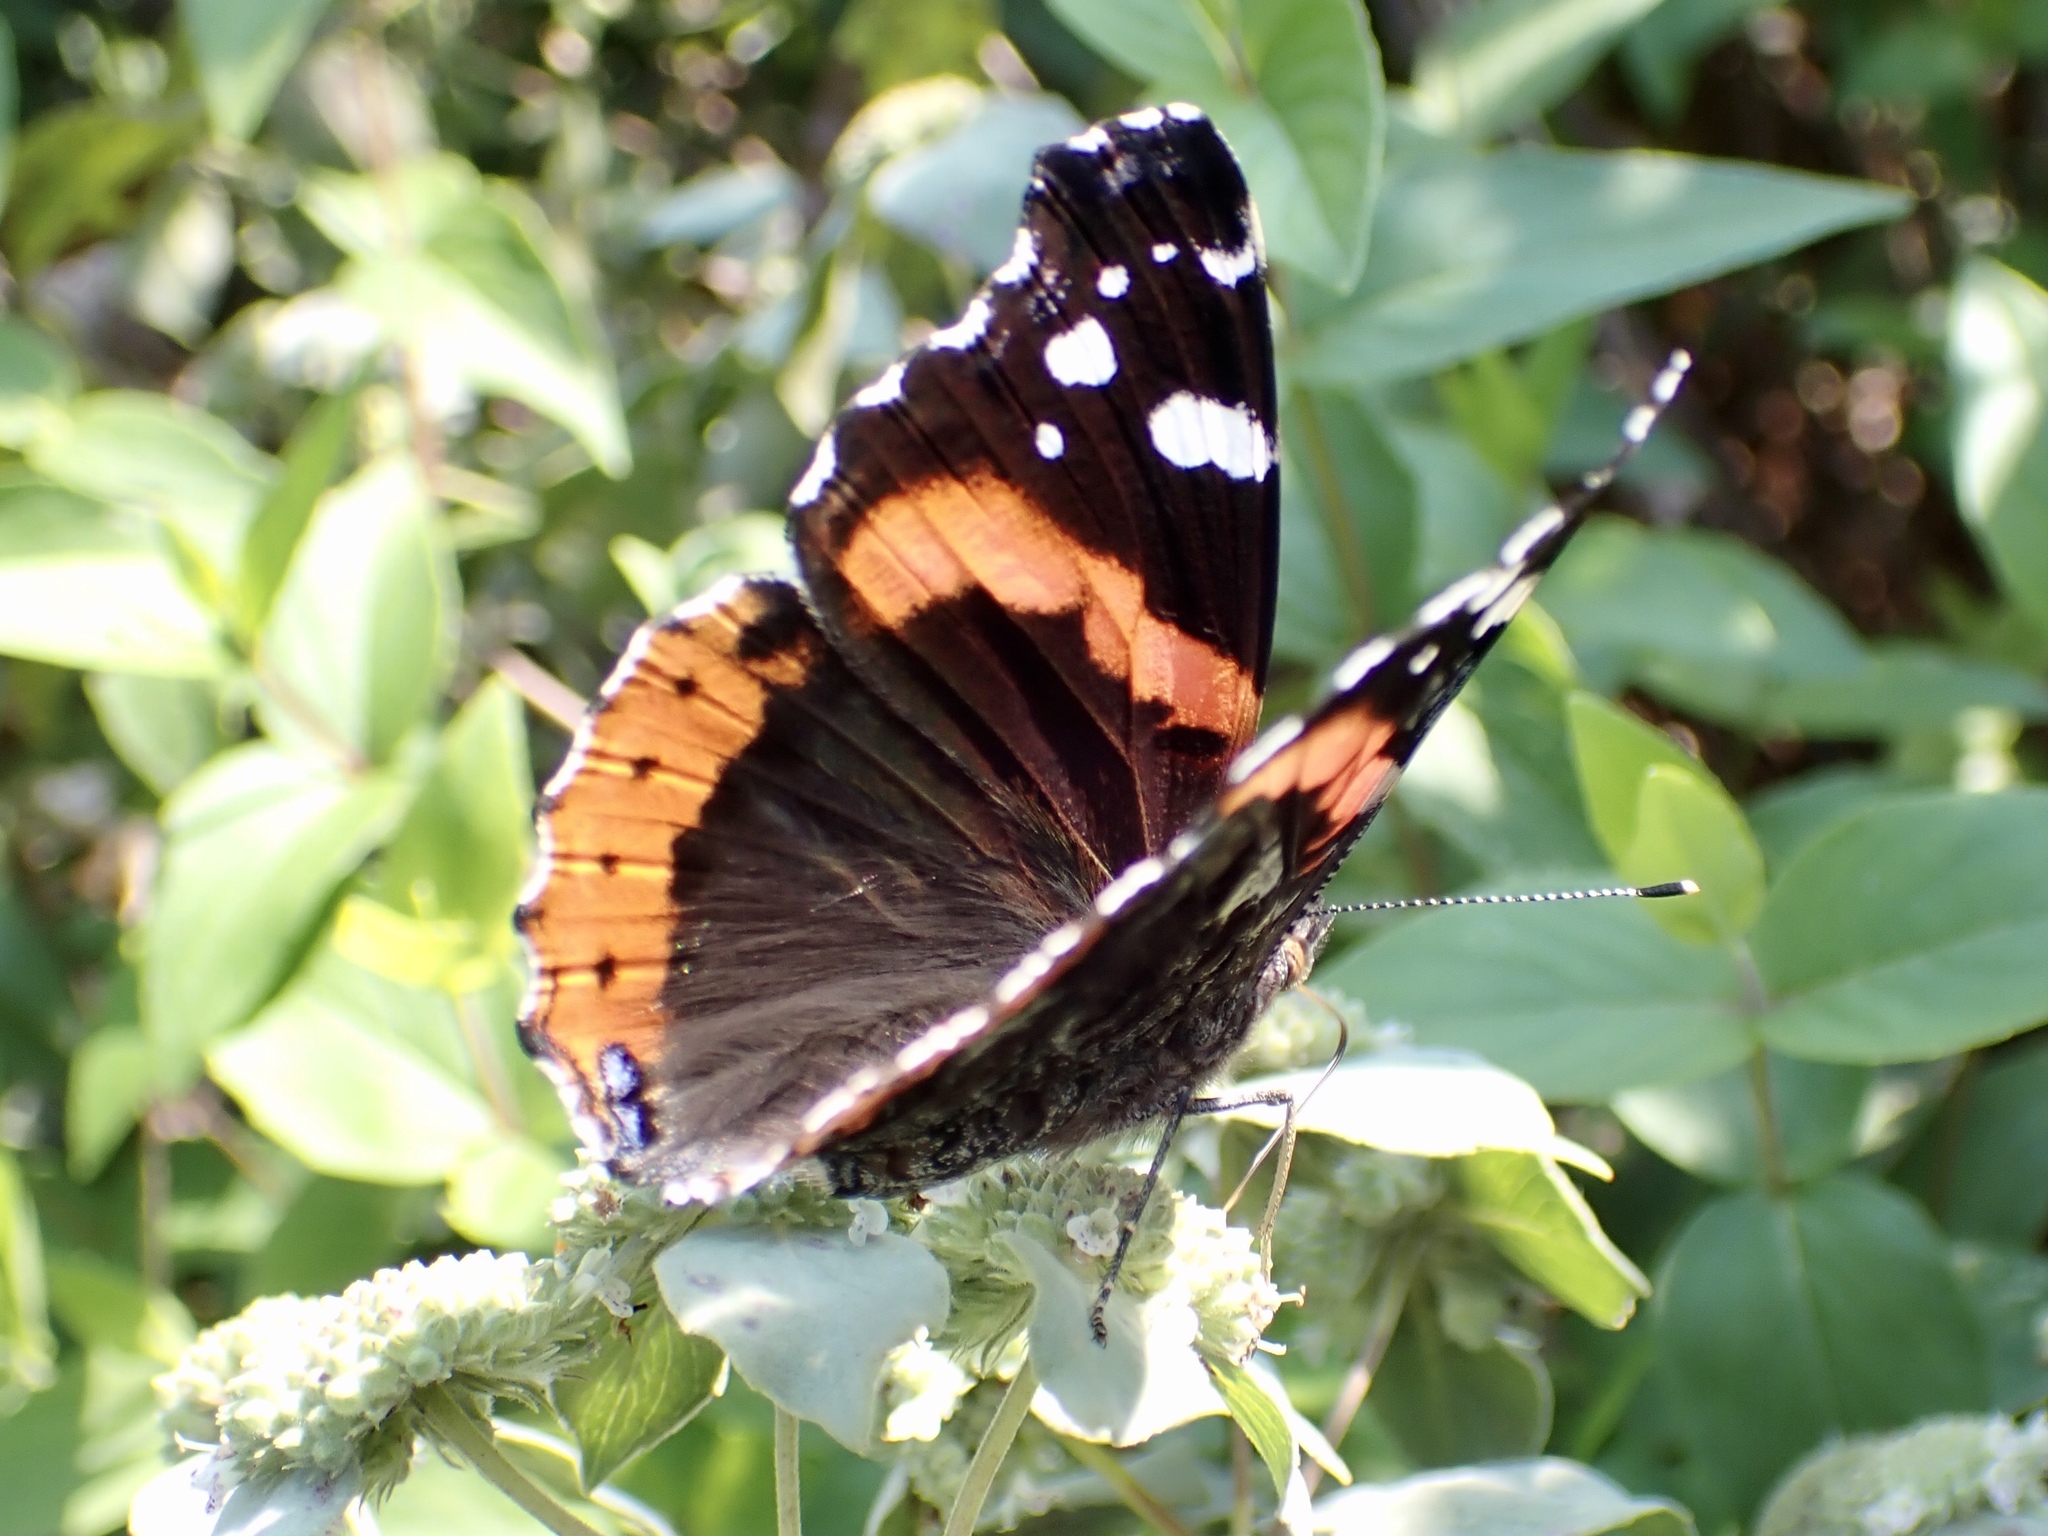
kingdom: Animalia
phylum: Arthropoda
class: Insecta
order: Lepidoptera
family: Nymphalidae
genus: Vanessa
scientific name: Vanessa atalanta
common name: Red admiral
